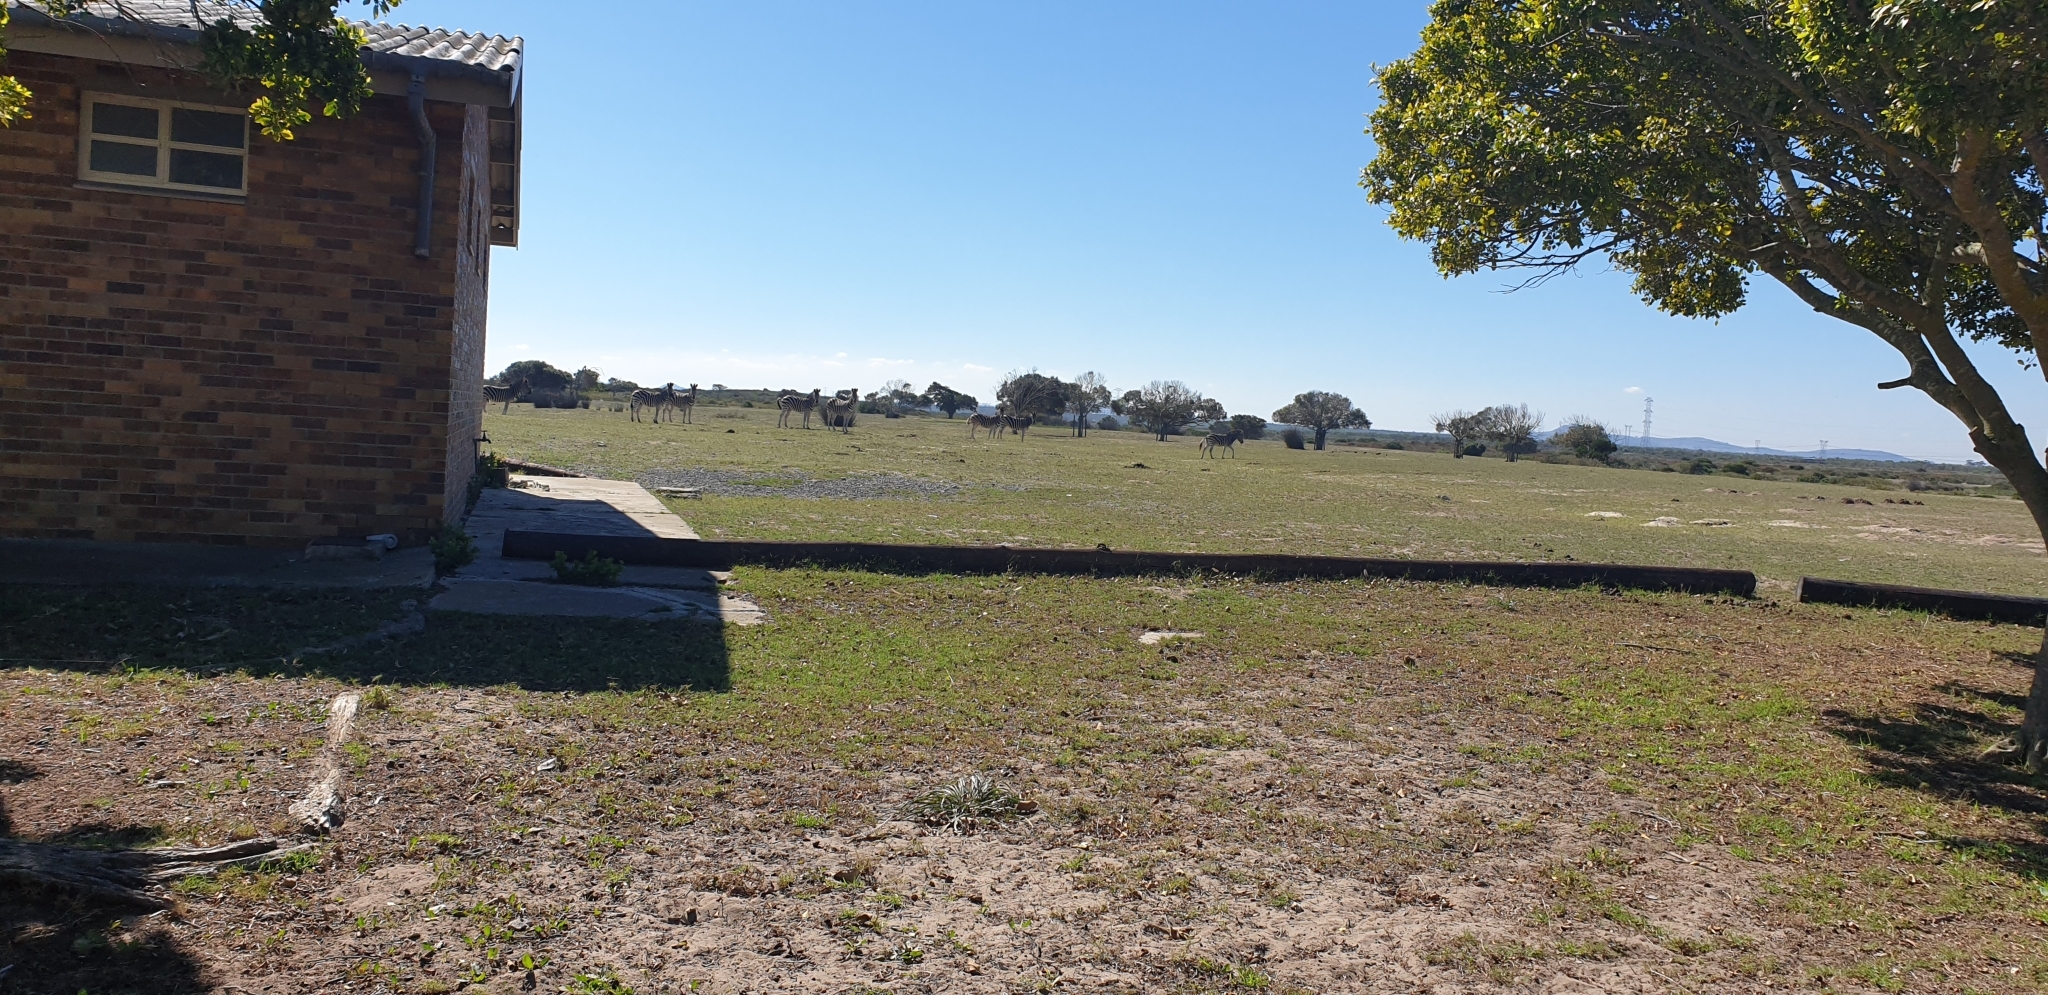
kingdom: Animalia
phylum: Chordata
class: Mammalia
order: Perissodactyla
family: Equidae
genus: Equus
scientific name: Equus quagga
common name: Plains zebra
